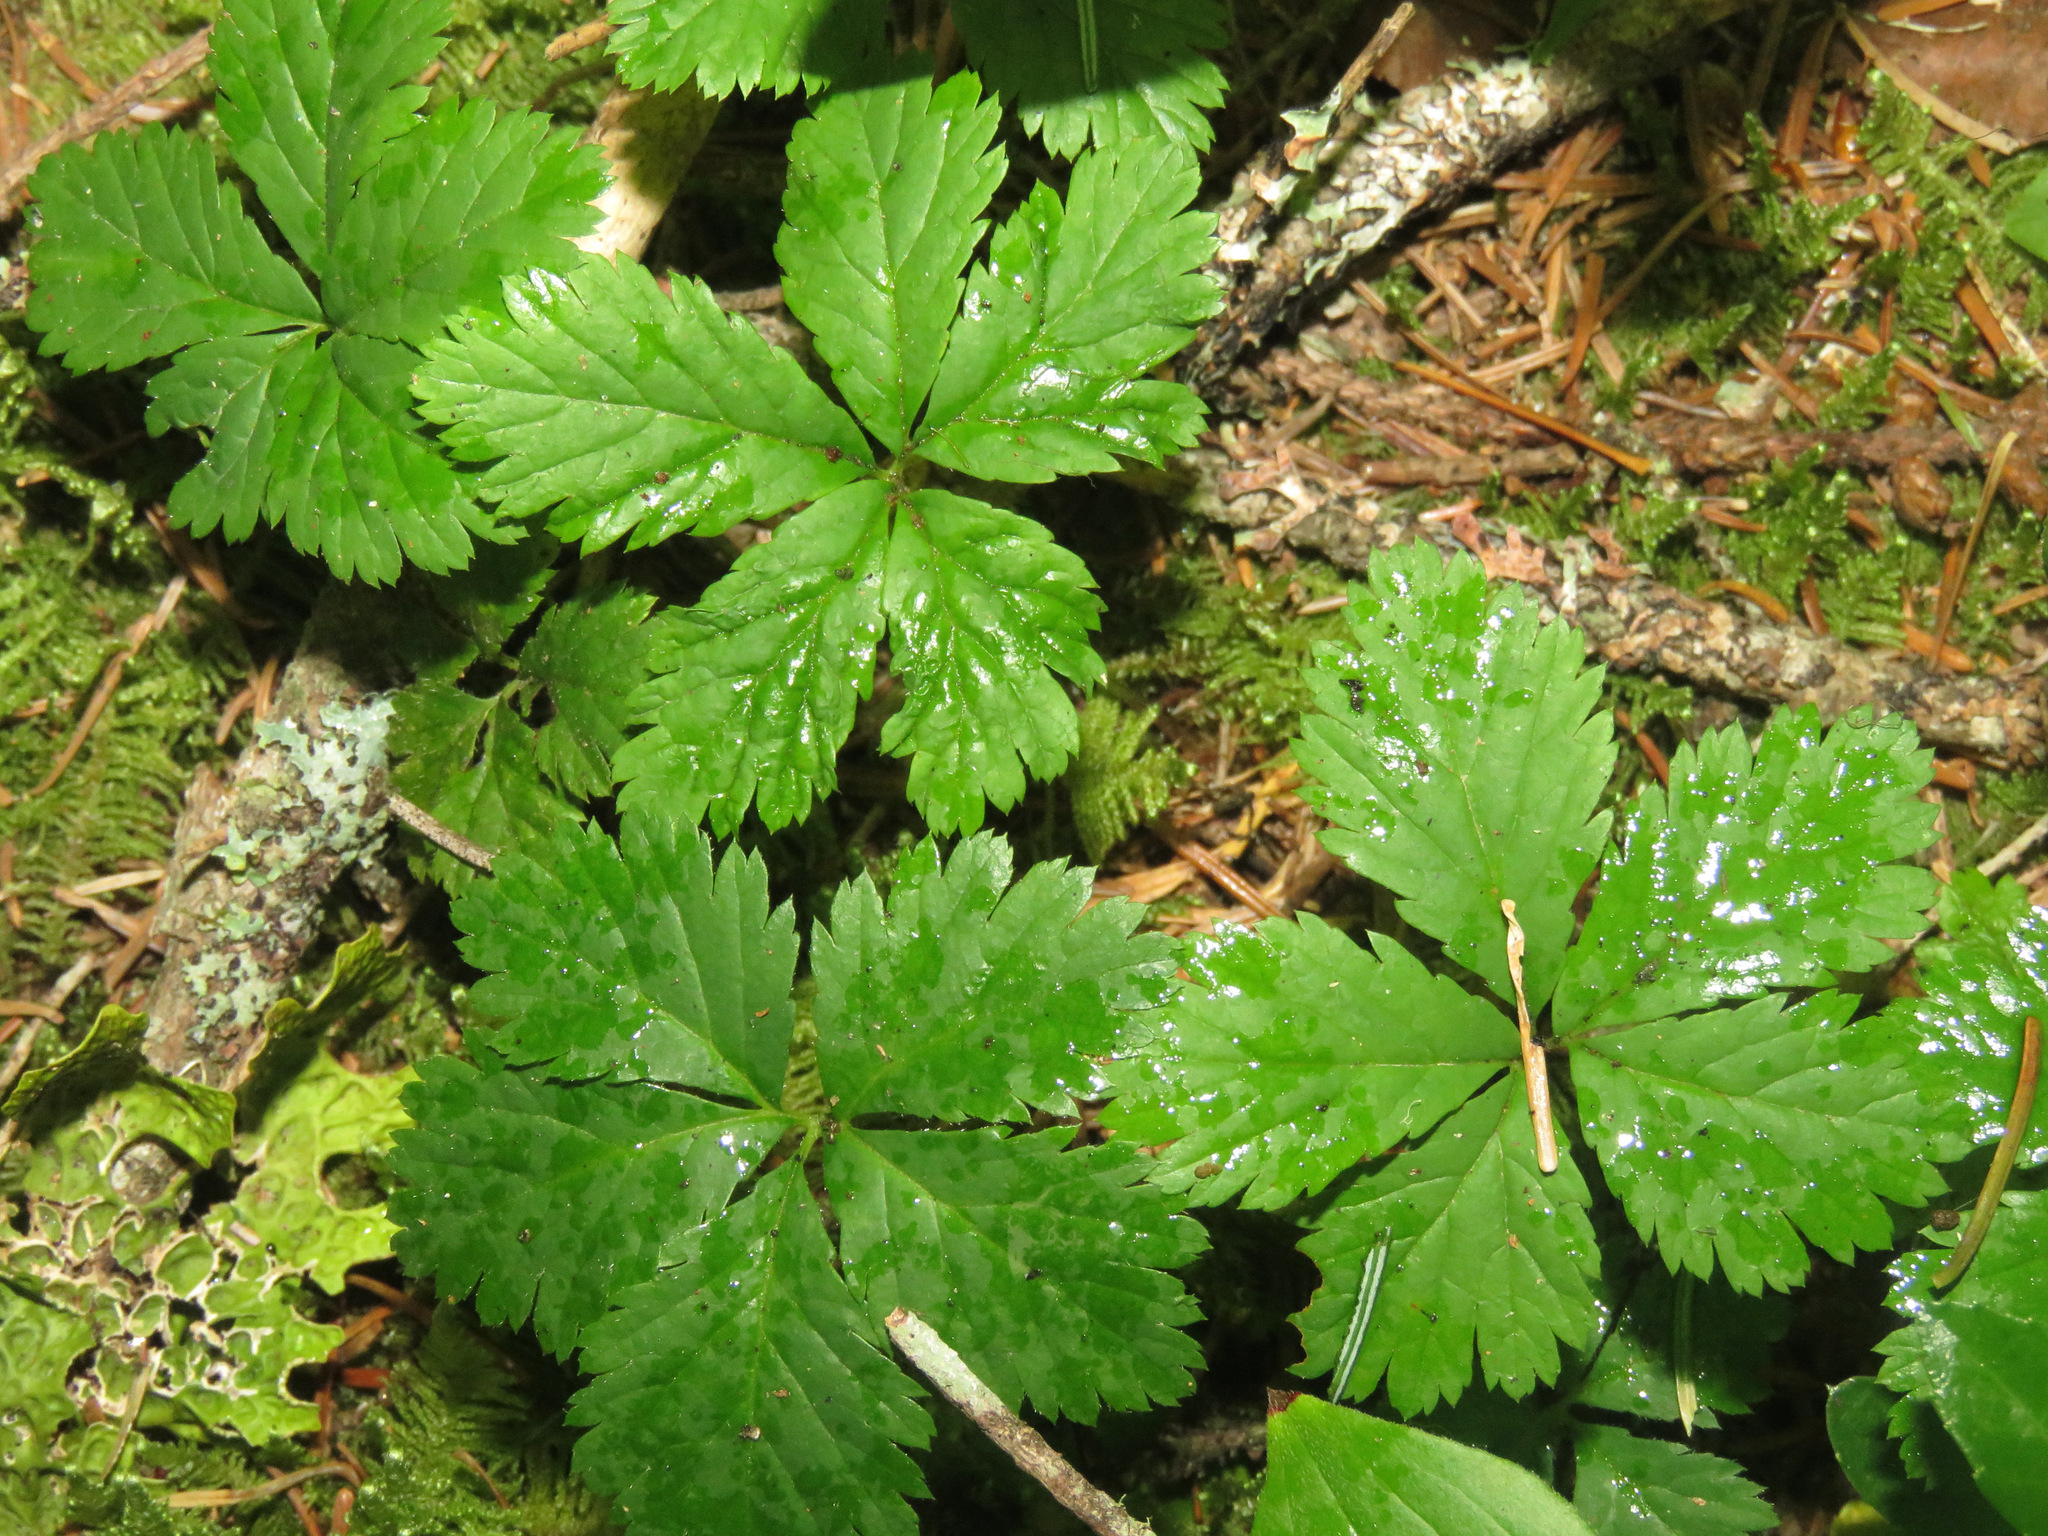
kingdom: Plantae
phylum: Tracheophyta
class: Magnoliopsida
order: Rosales
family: Rosaceae
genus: Rubus
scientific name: Rubus pedatus
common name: Creeping raspberry
